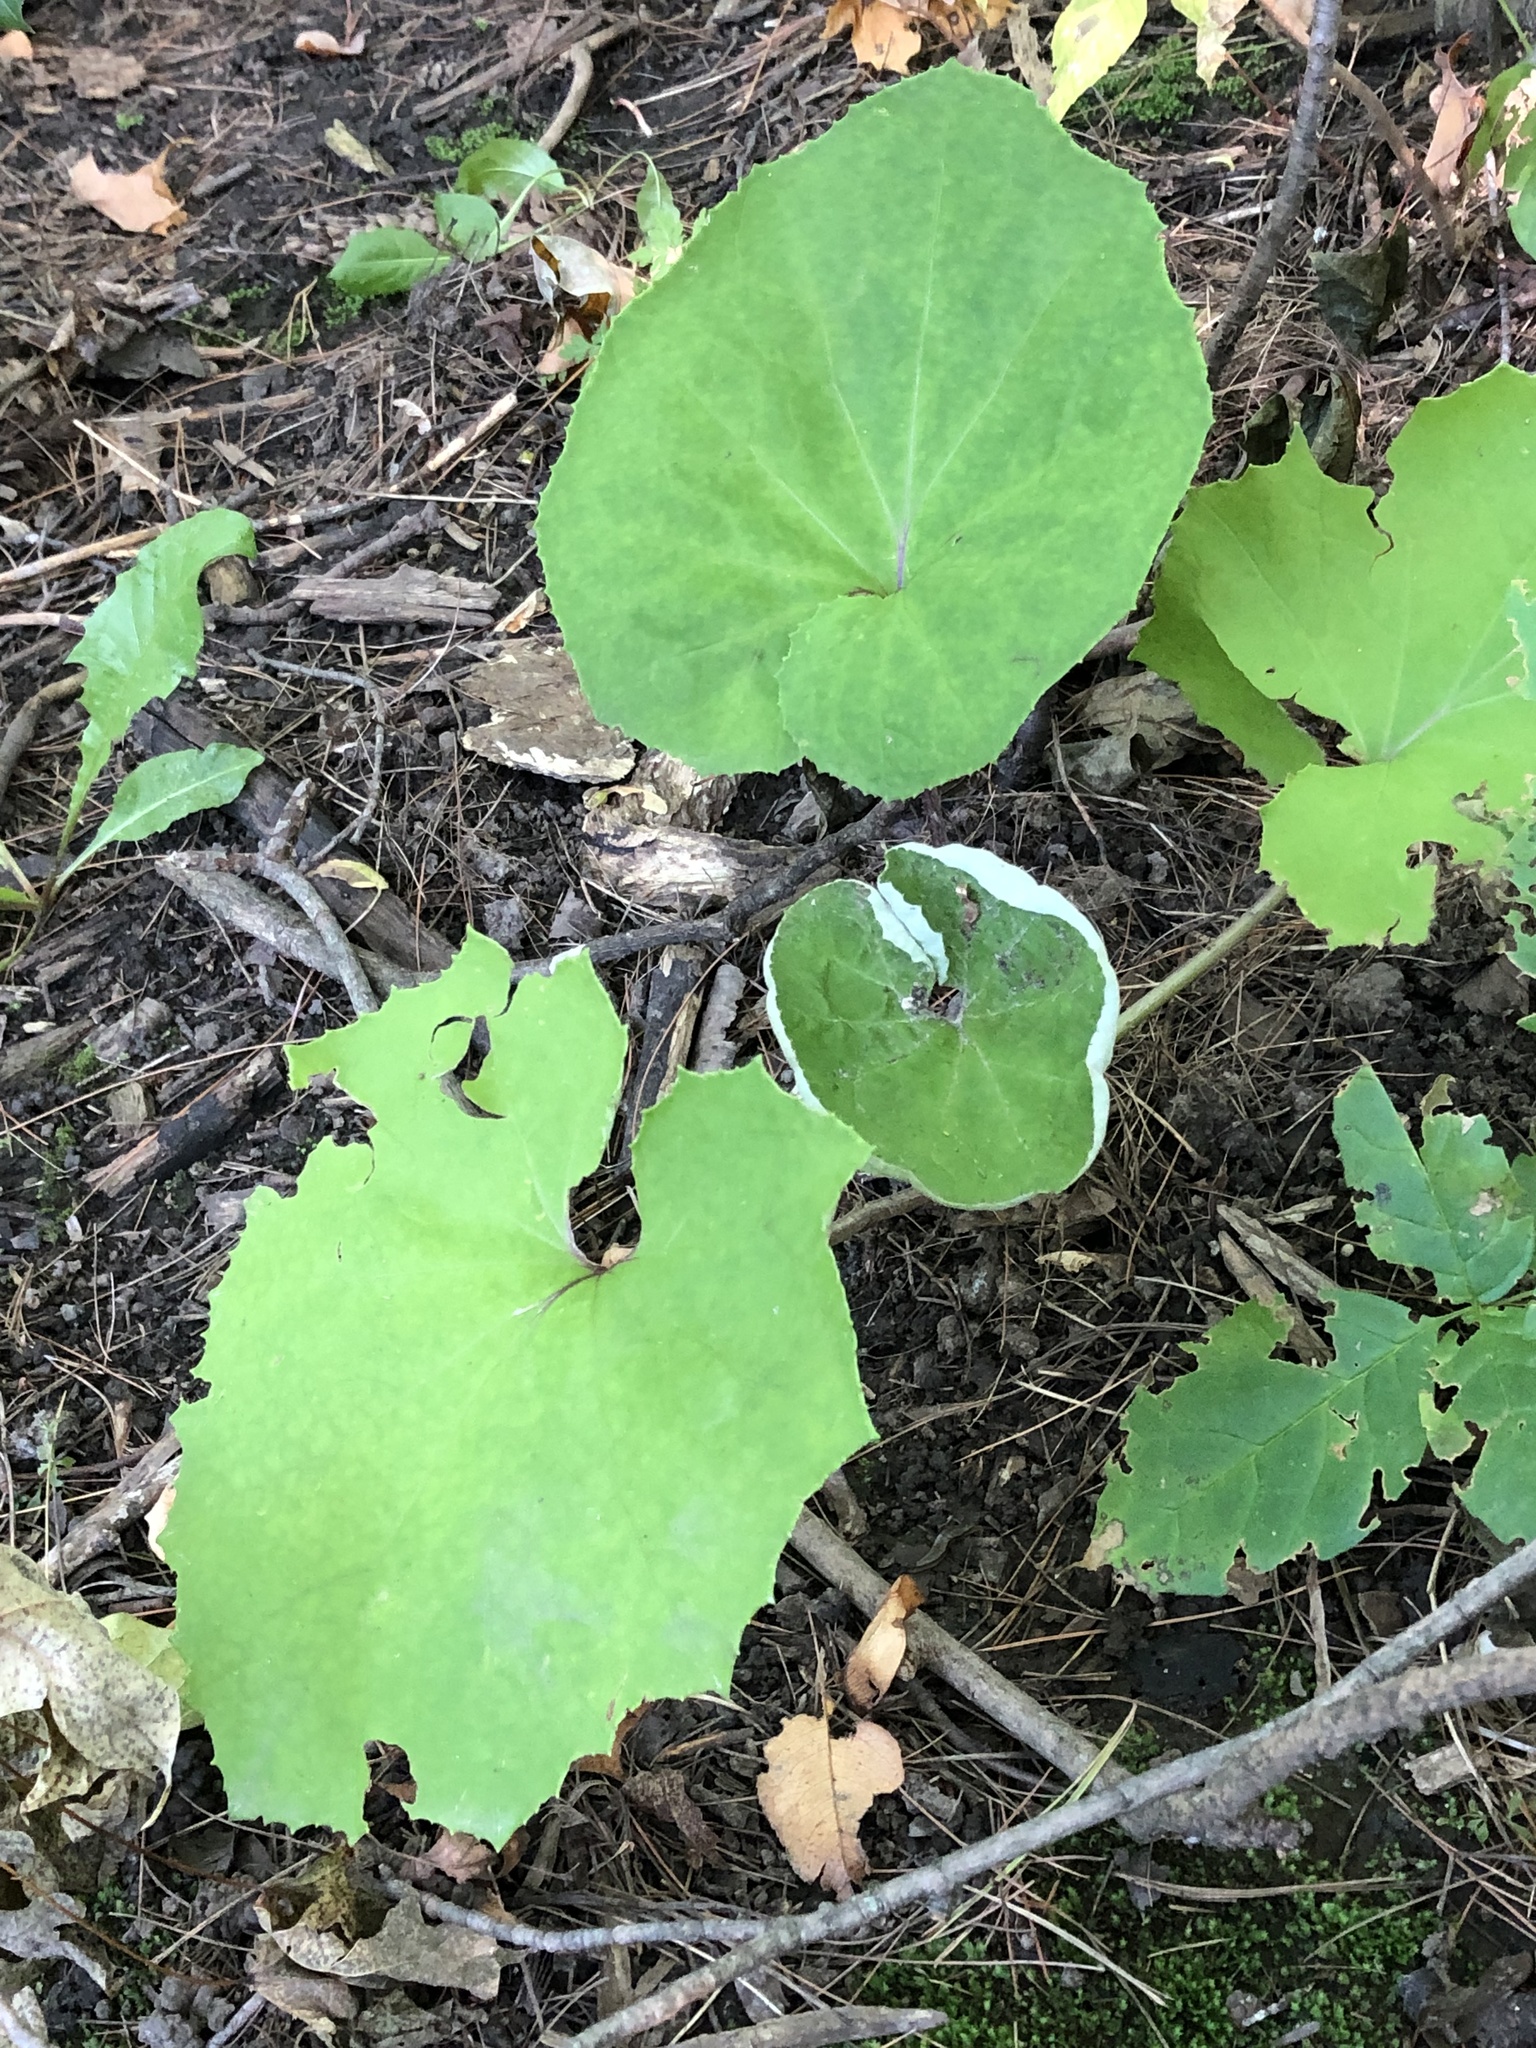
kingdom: Plantae
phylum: Tracheophyta
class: Magnoliopsida
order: Asterales
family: Asteraceae
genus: Tussilago
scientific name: Tussilago farfara
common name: Coltsfoot
